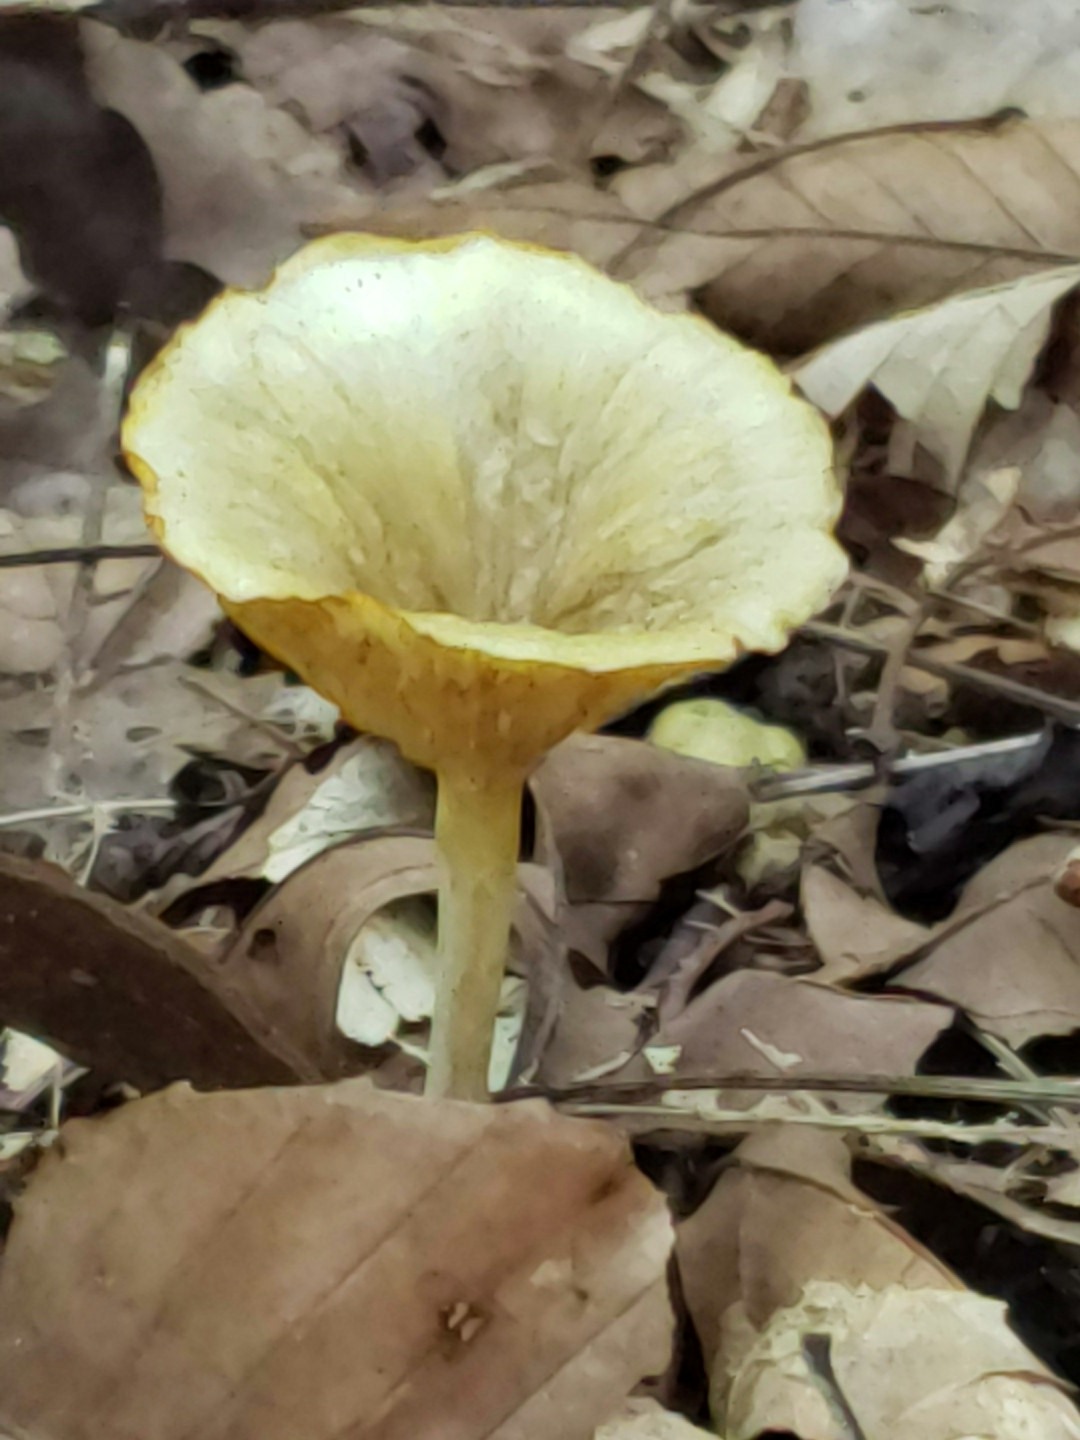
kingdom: Fungi
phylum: Basidiomycota
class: Agaricomycetes
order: Agaricales
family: Marasmiaceae
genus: Gerronema
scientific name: Gerronema strombodes
